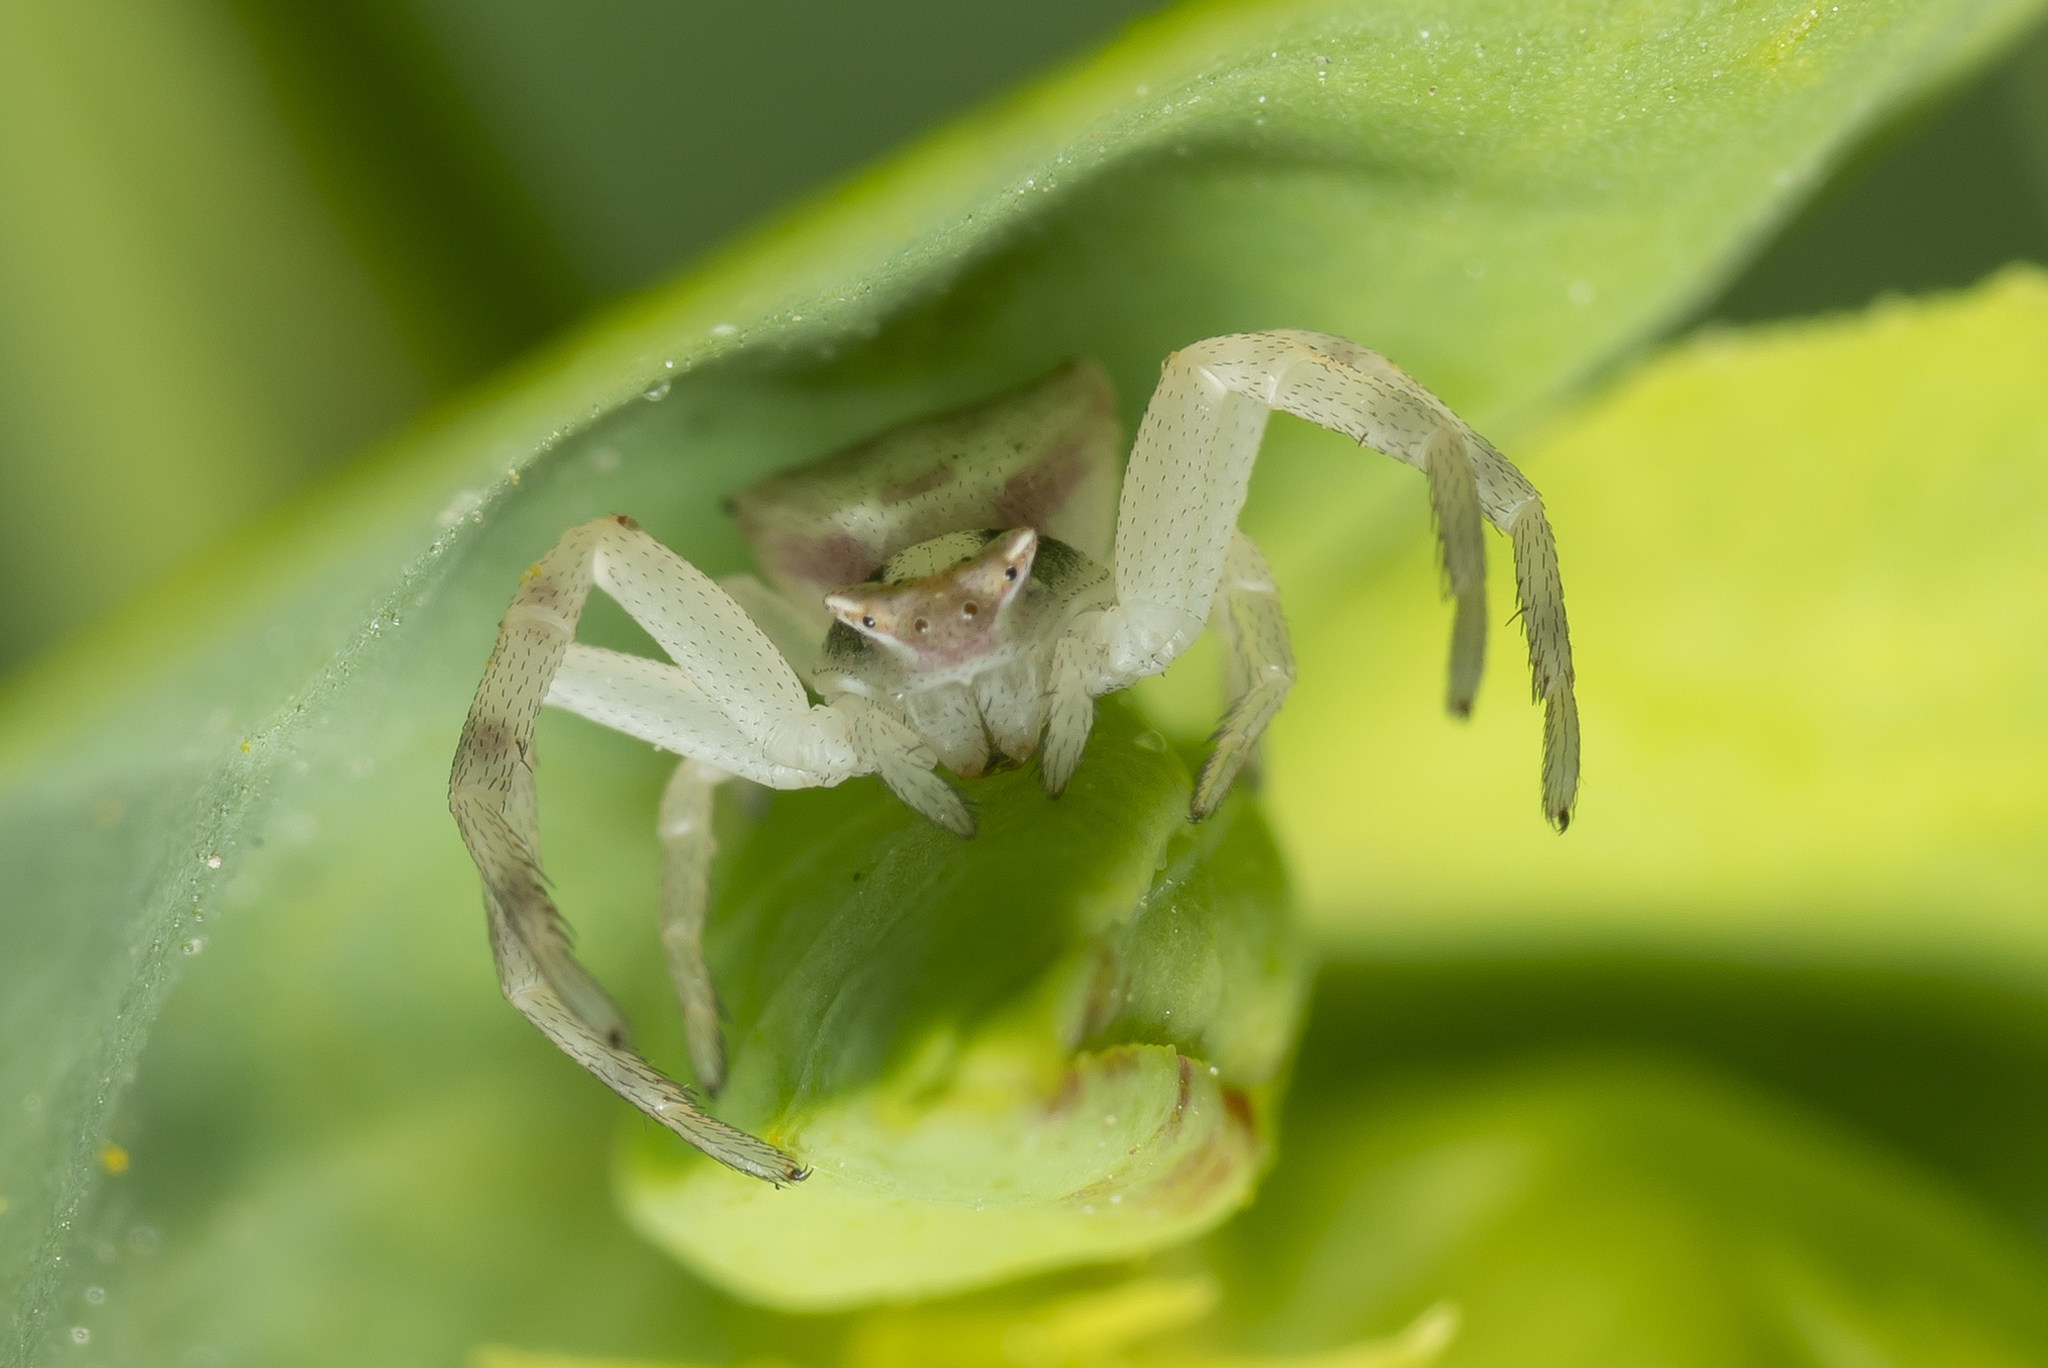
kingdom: Animalia
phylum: Arthropoda
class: Arachnida
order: Araneae
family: Thomisidae
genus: Thomisus
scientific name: Thomisus onustus
